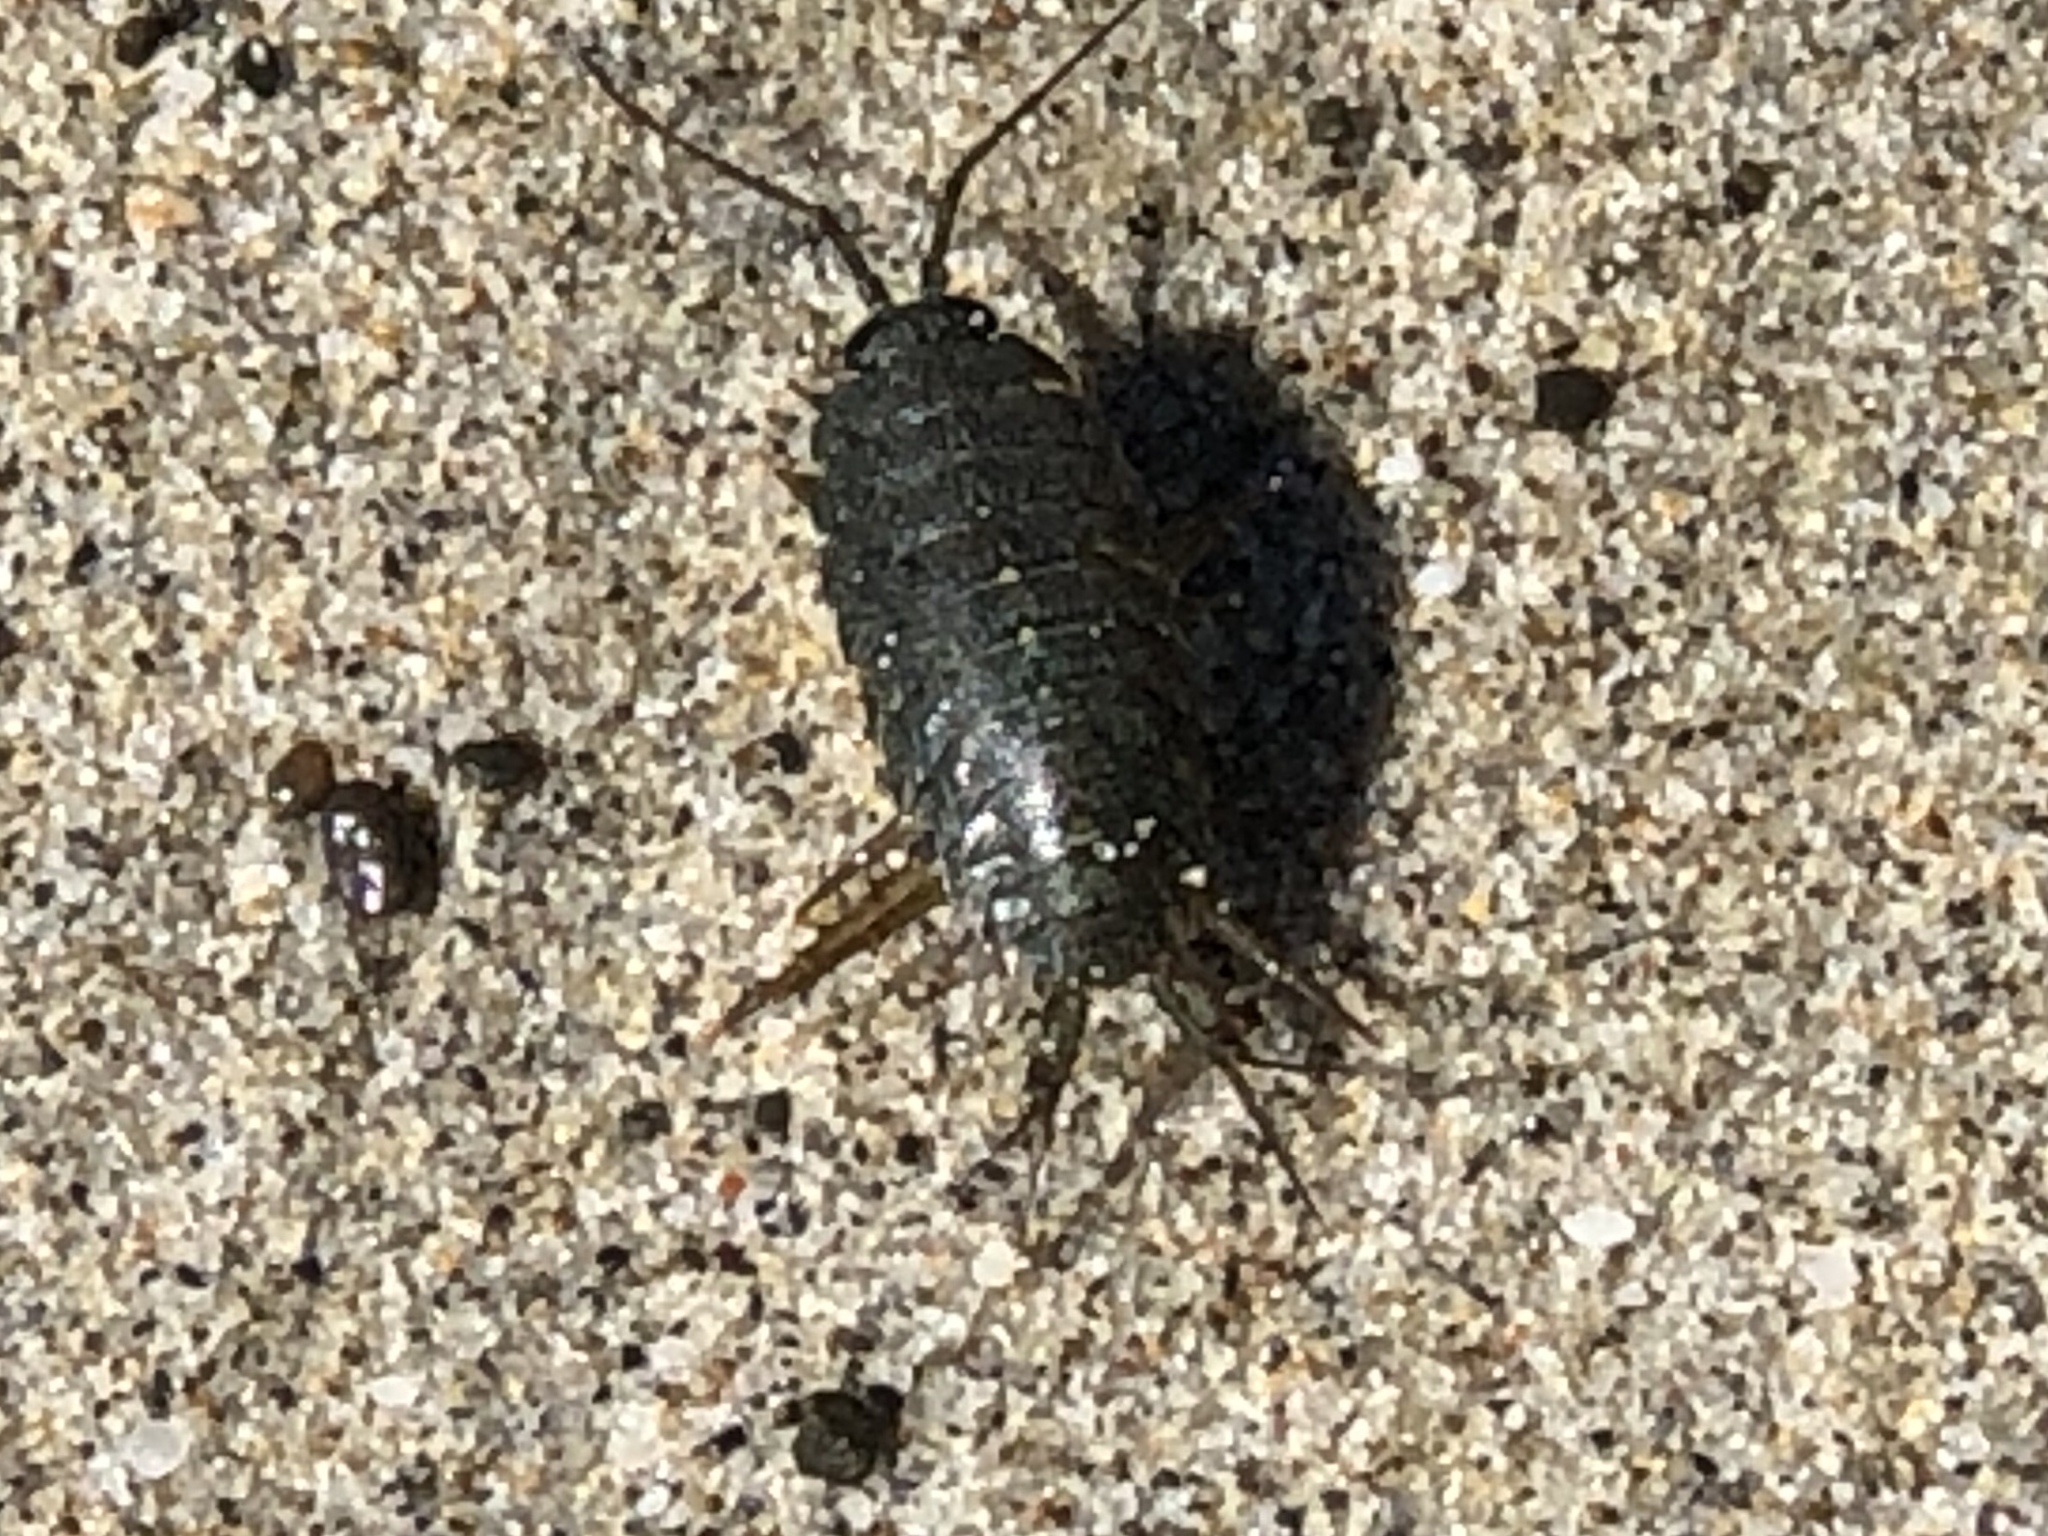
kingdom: Animalia
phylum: Arthropoda
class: Malacostraca
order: Isopoda
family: Ligiidae
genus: Ligia
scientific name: Ligia occidentalis
